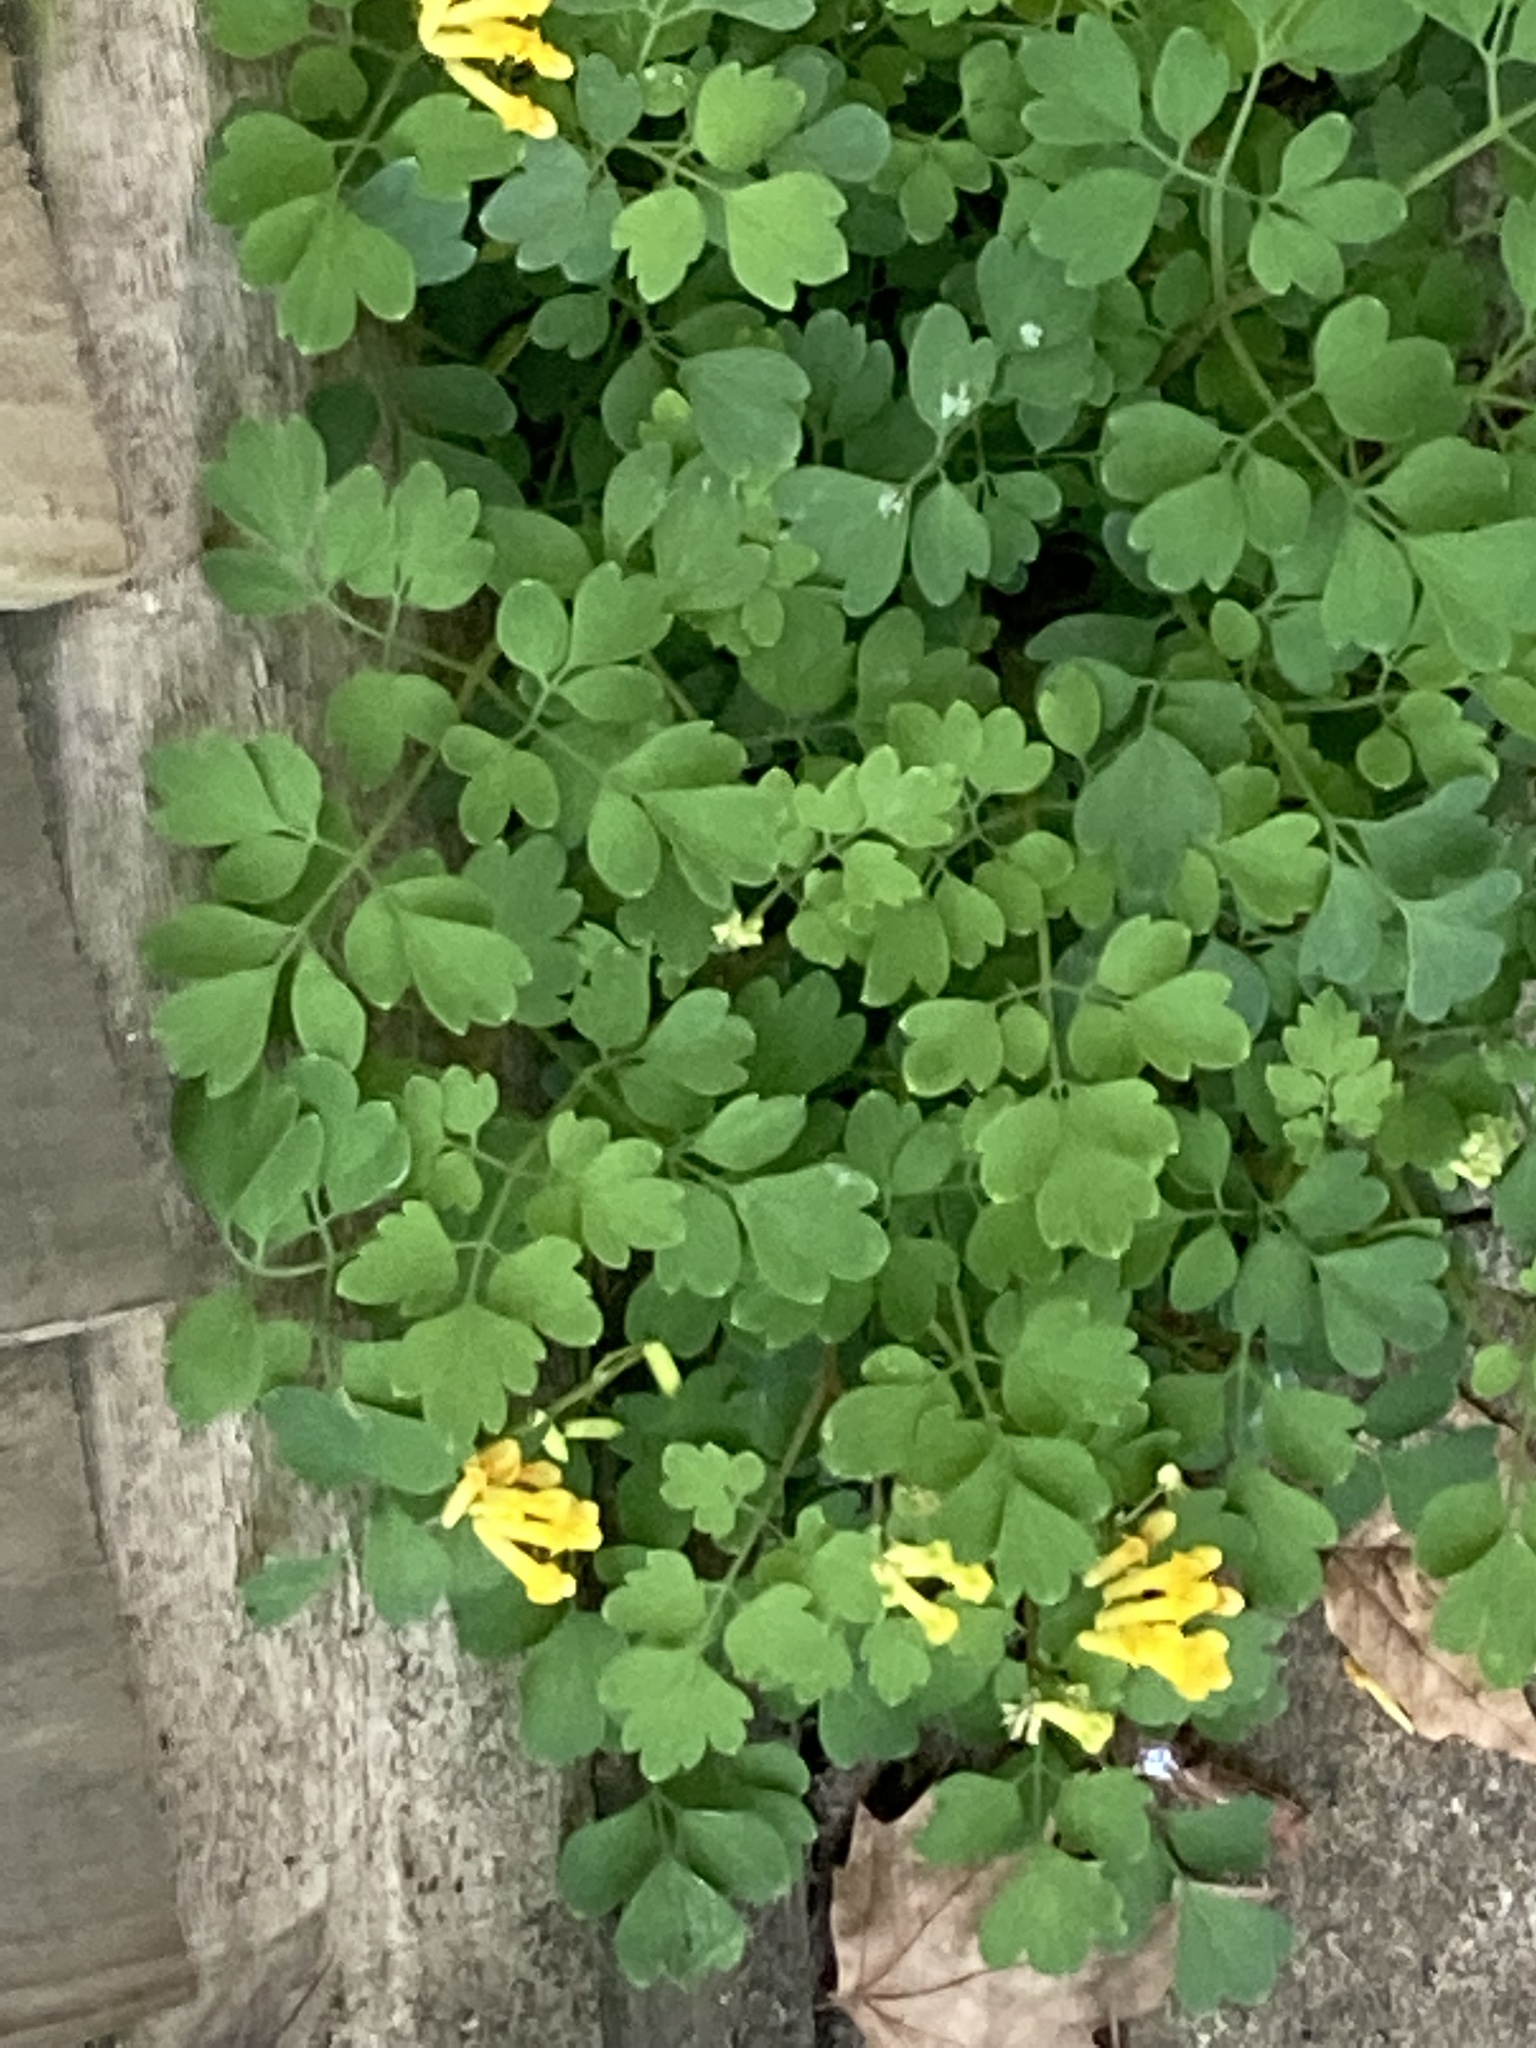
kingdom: Plantae
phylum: Tracheophyta
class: Magnoliopsida
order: Ranunculales
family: Papaveraceae
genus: Pseudofumaria
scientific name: Pseudofumaria lutea
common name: Yellow corydalis
